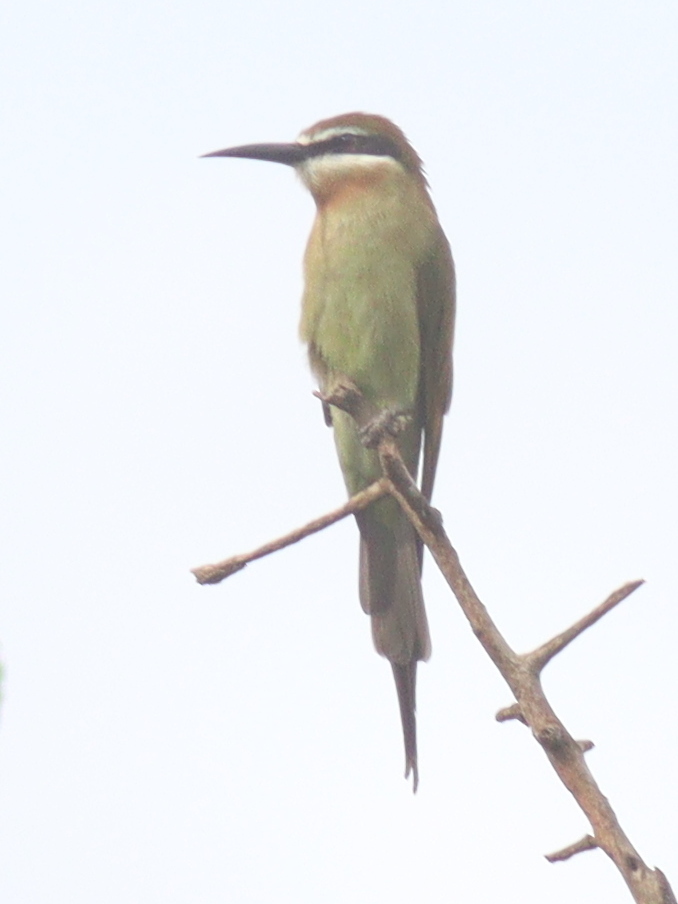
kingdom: Animalia
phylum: Chordata
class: Aves
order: Coraciiformes
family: Meropidae
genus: Merops
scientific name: Merops superciliosus
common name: Olive bee-eater
